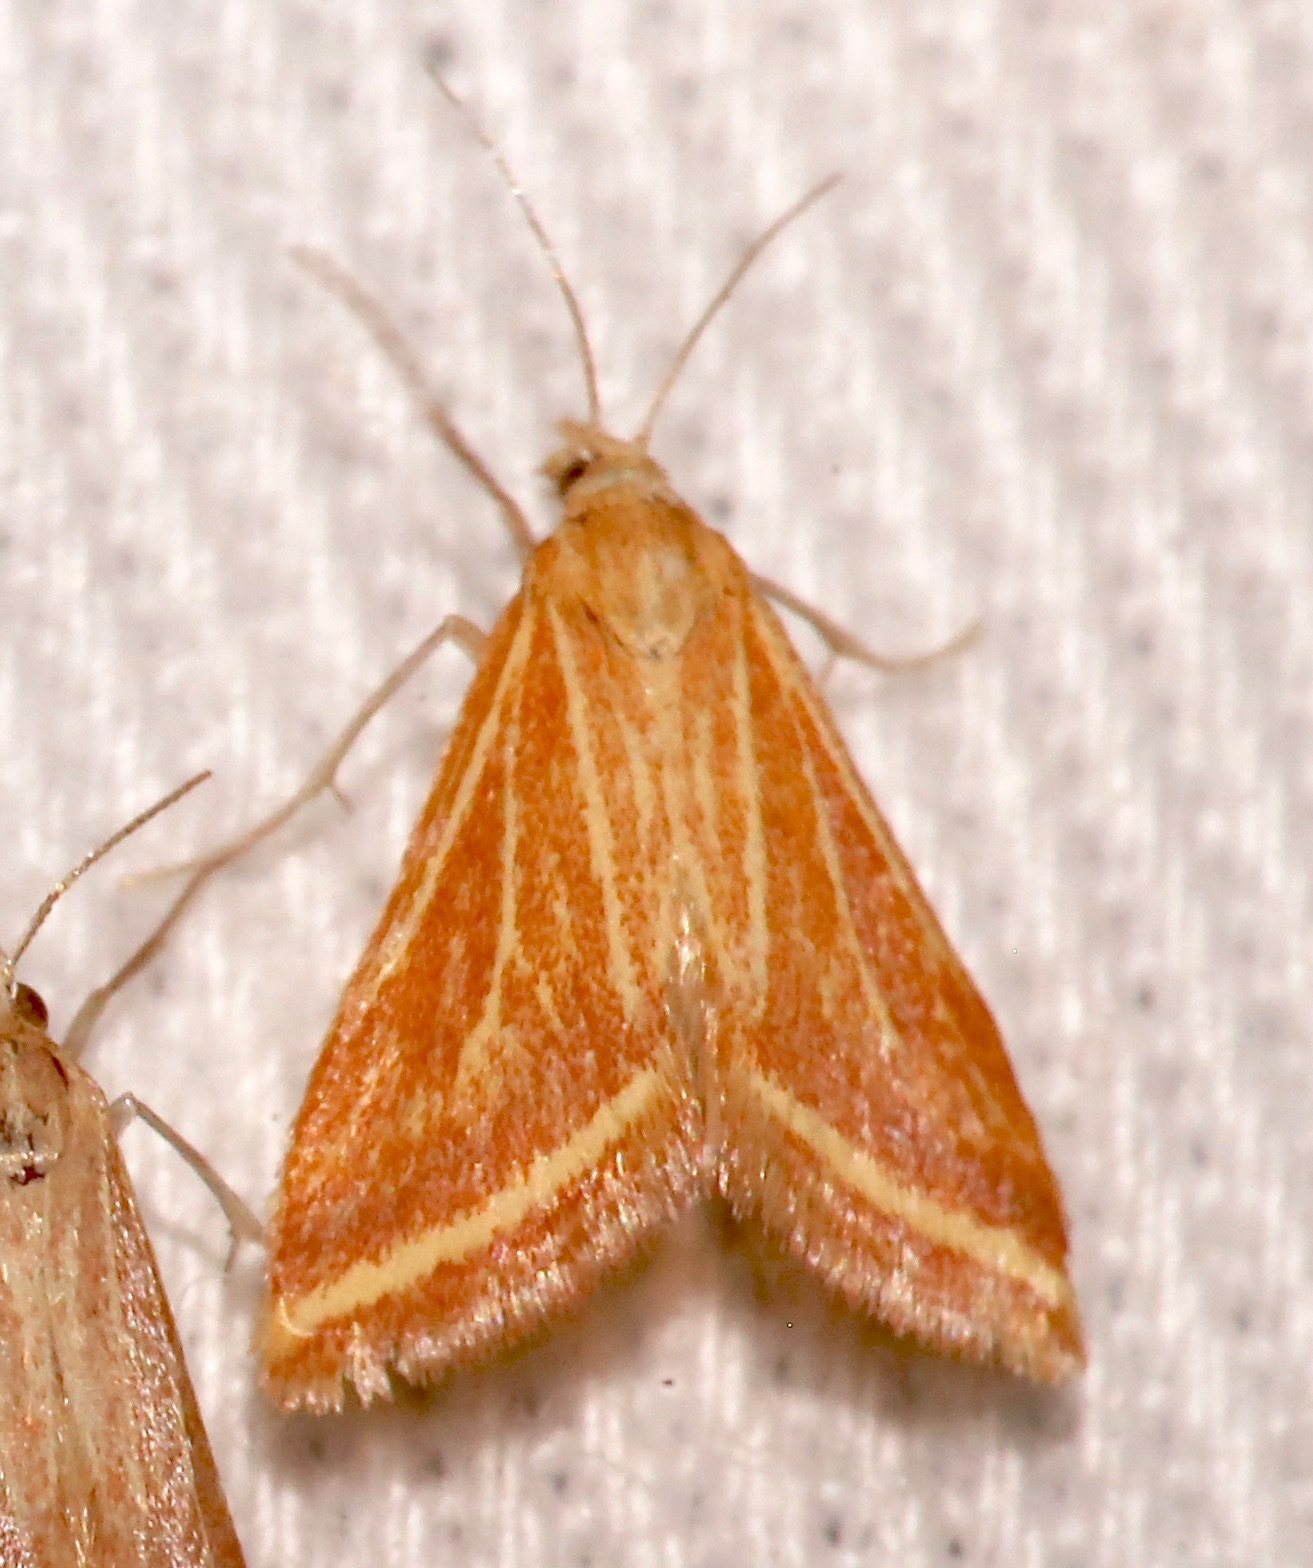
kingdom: Animalia
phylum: Arthropoda
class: Insecta
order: Lepidoptera
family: Crambidae
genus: Microtheoris
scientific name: Microtheoris ophionalis
